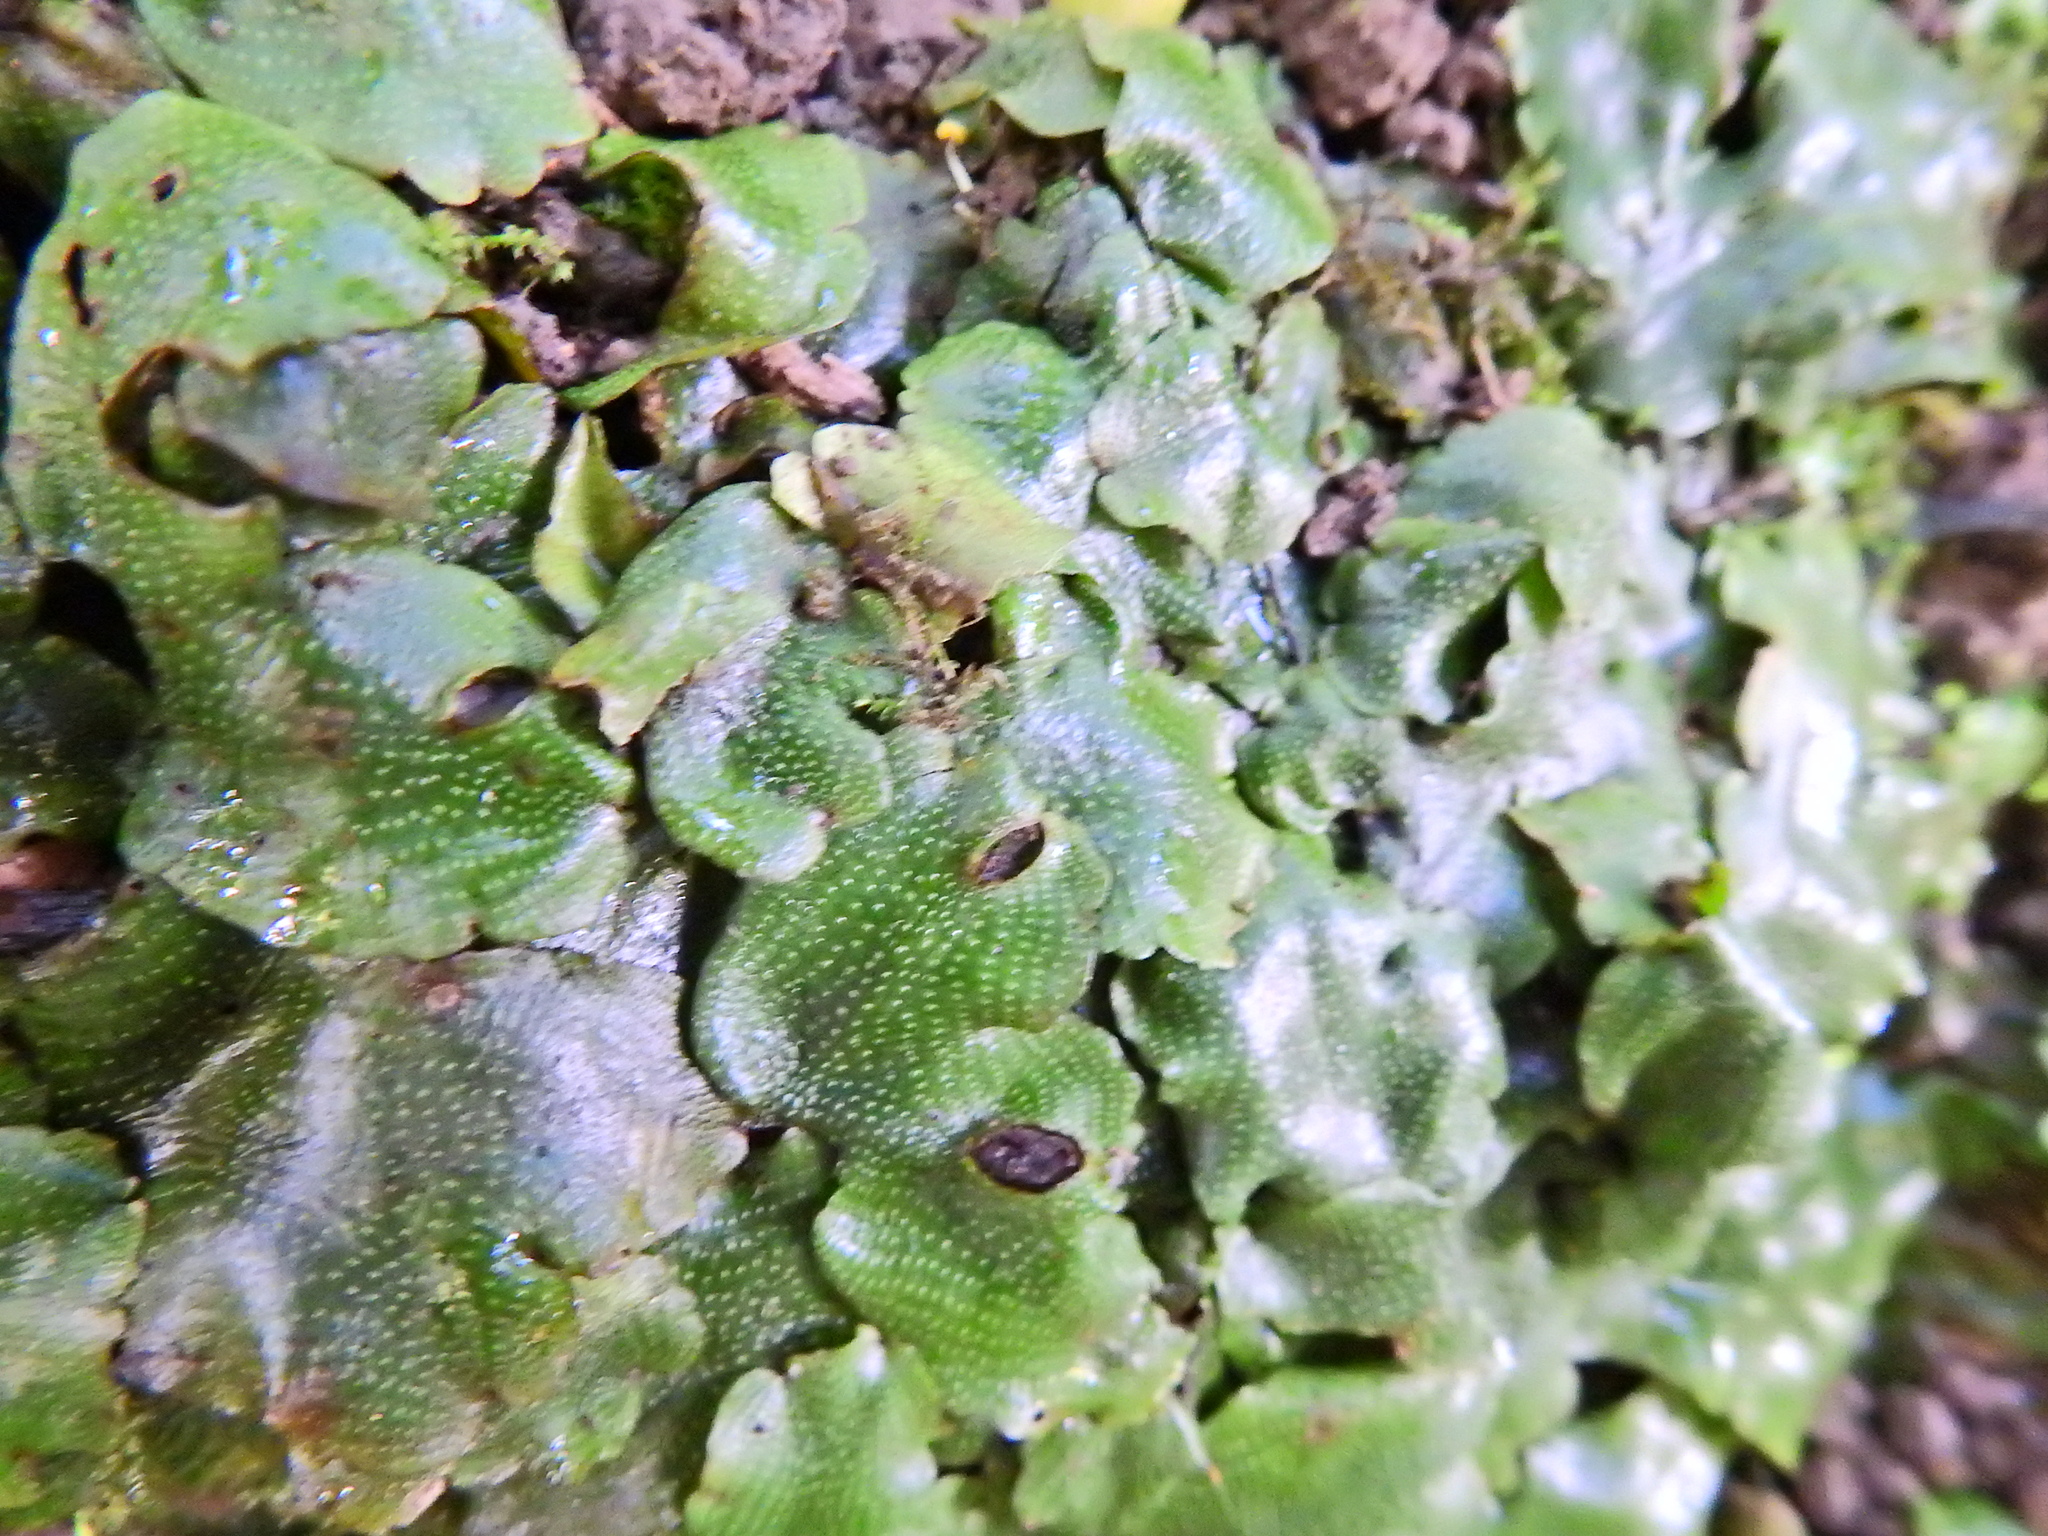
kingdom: Plantae
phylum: Marchantiophyta
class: Marchantiopsida
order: Marchantiales
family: Conocephalaceae
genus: Conocephalum
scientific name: Conocephalum conicum
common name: Great scented liverwort
